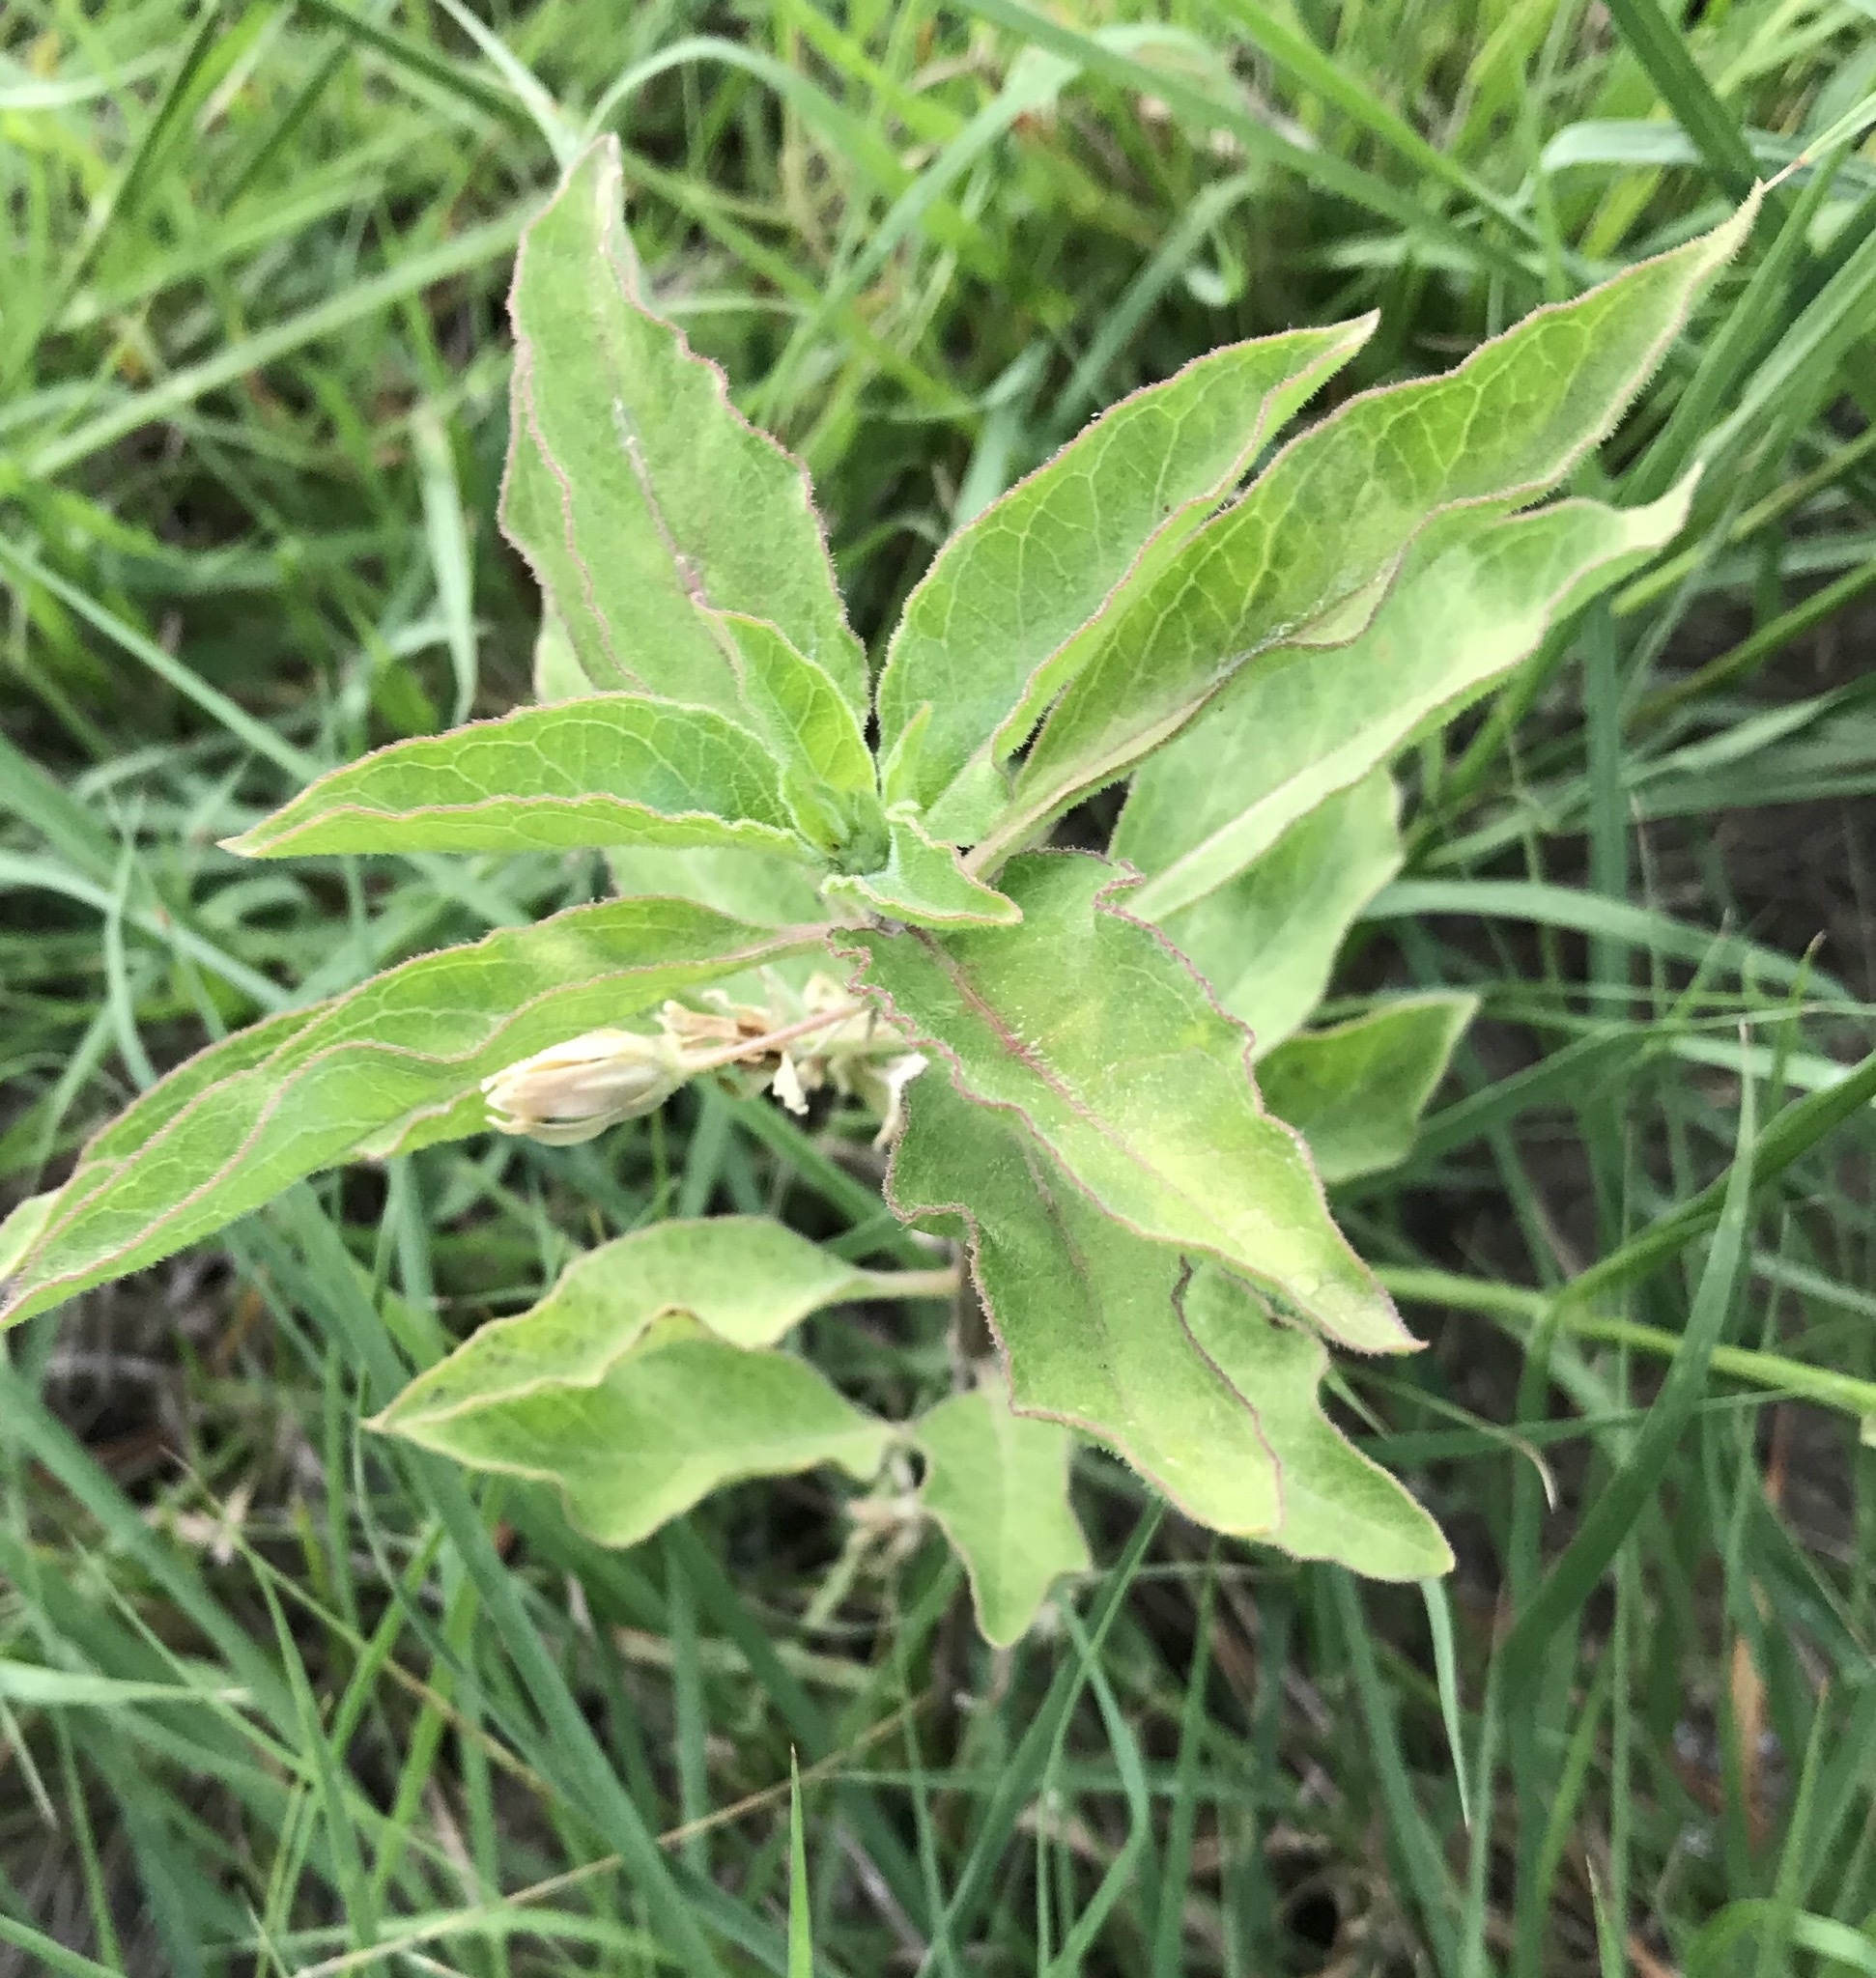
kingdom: Plantae
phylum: Tracheophyta
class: Magnoliopsida
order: Gentianales
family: Apocynaceae
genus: Asclepias
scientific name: Asclepias oenotheroides
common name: Zizotes milkweed
